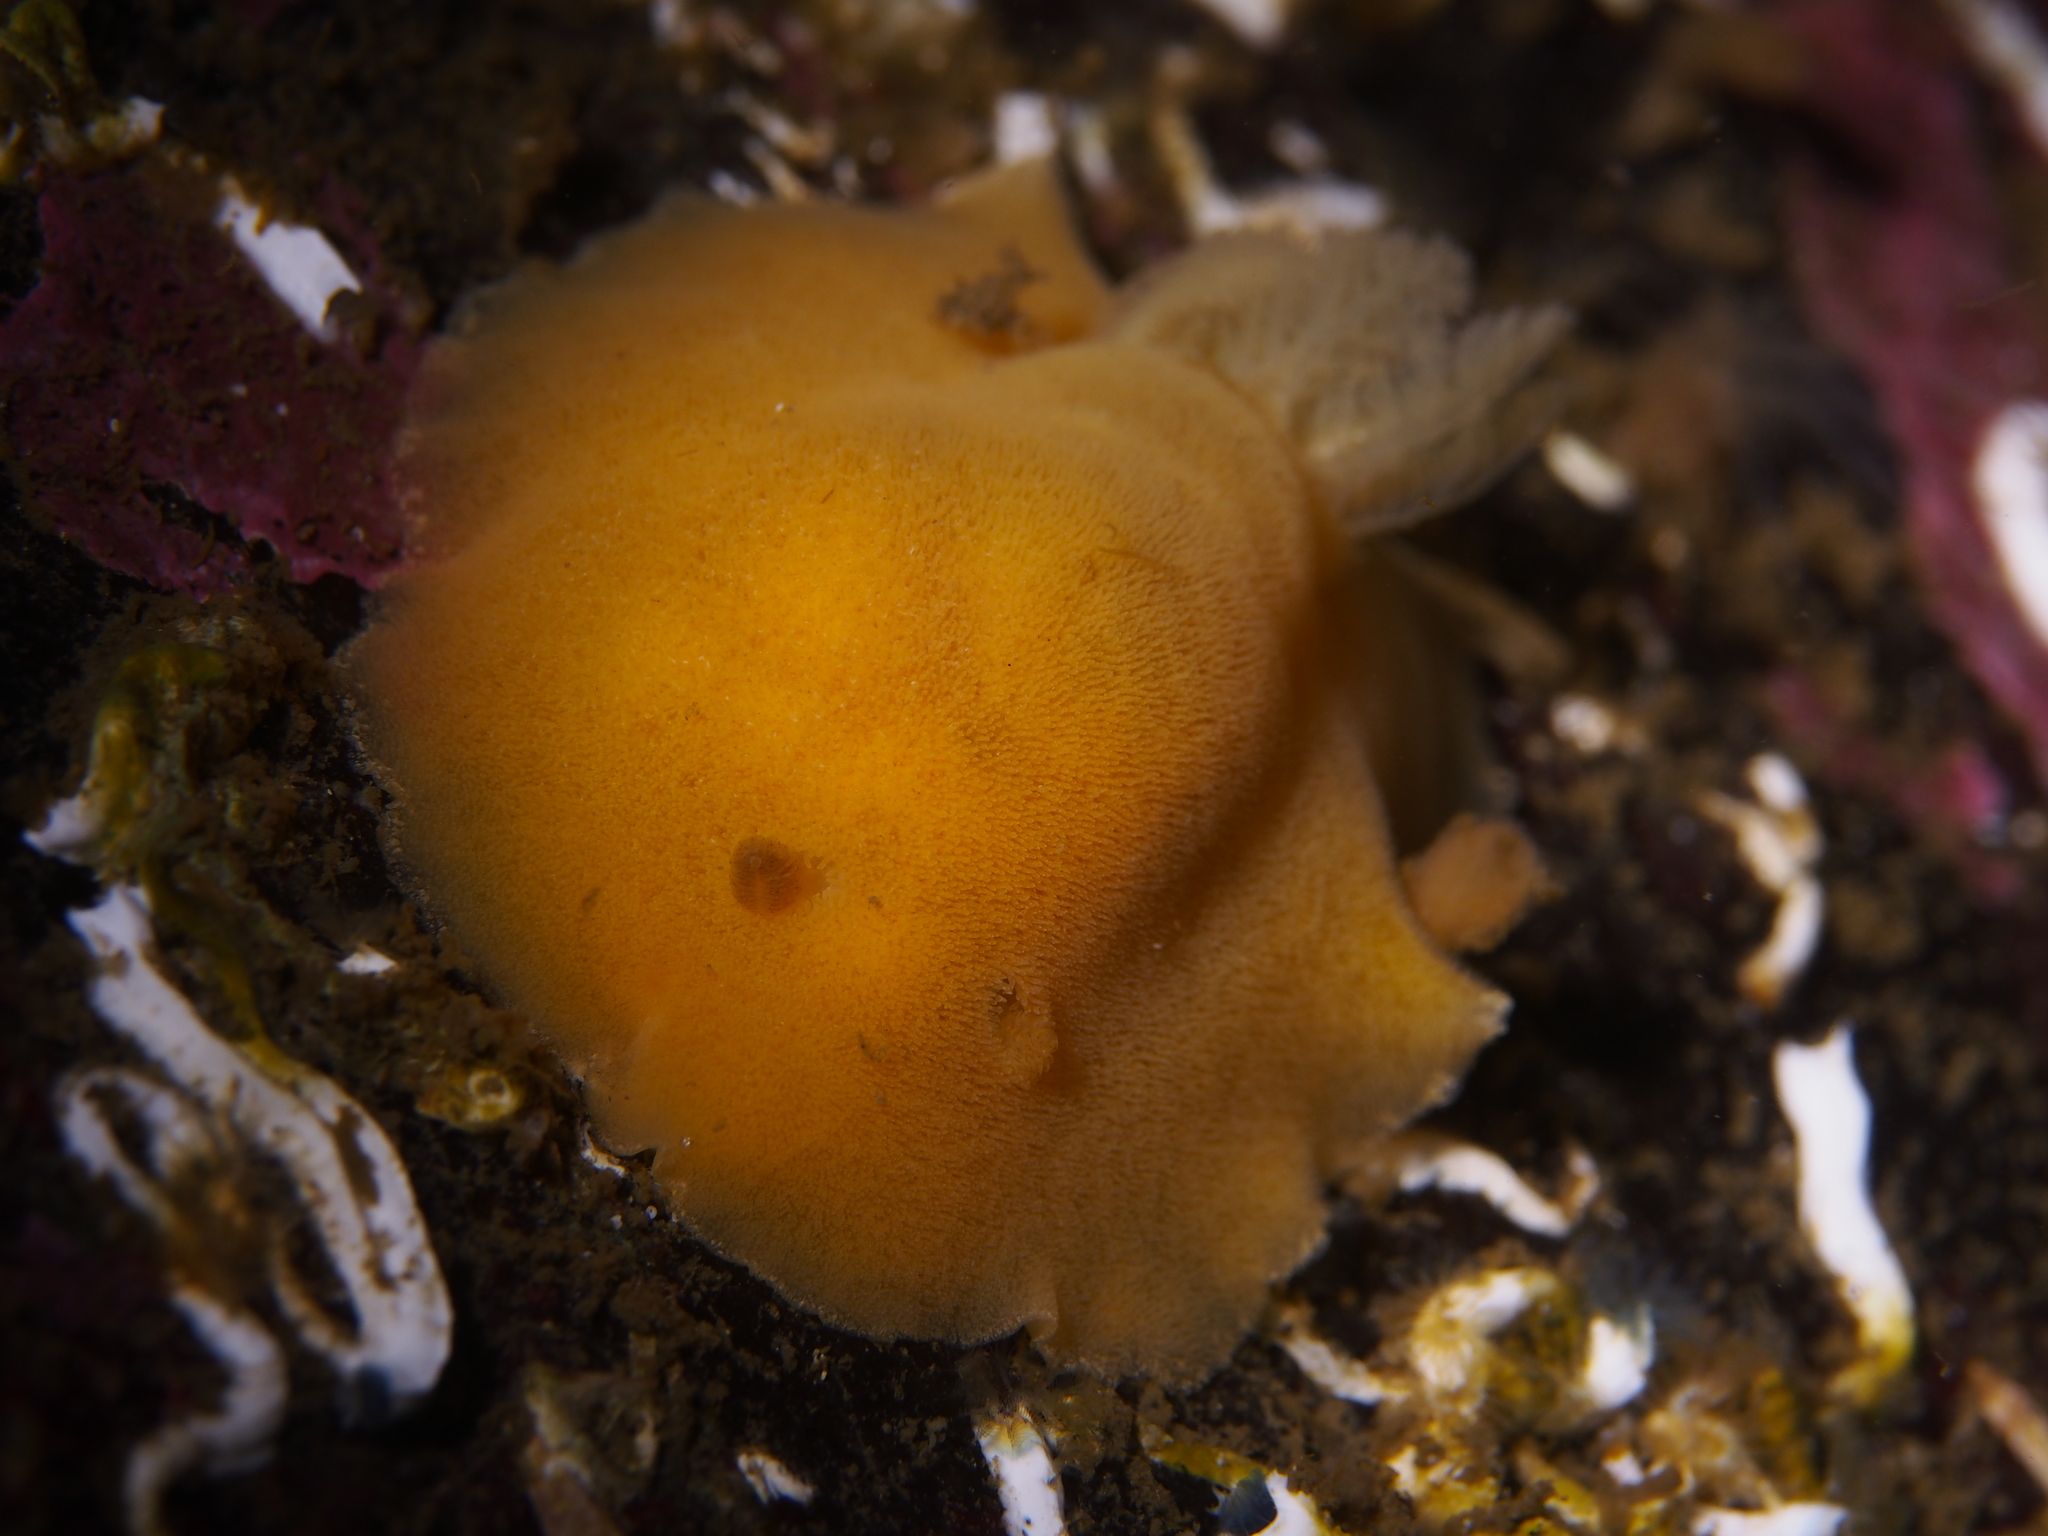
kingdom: Animalia
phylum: Mollusca
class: Gastropoda
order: Nudibranchia
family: Discodorididae
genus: Jorunna
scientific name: Jorunna tomentosa
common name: Grey sea slug
